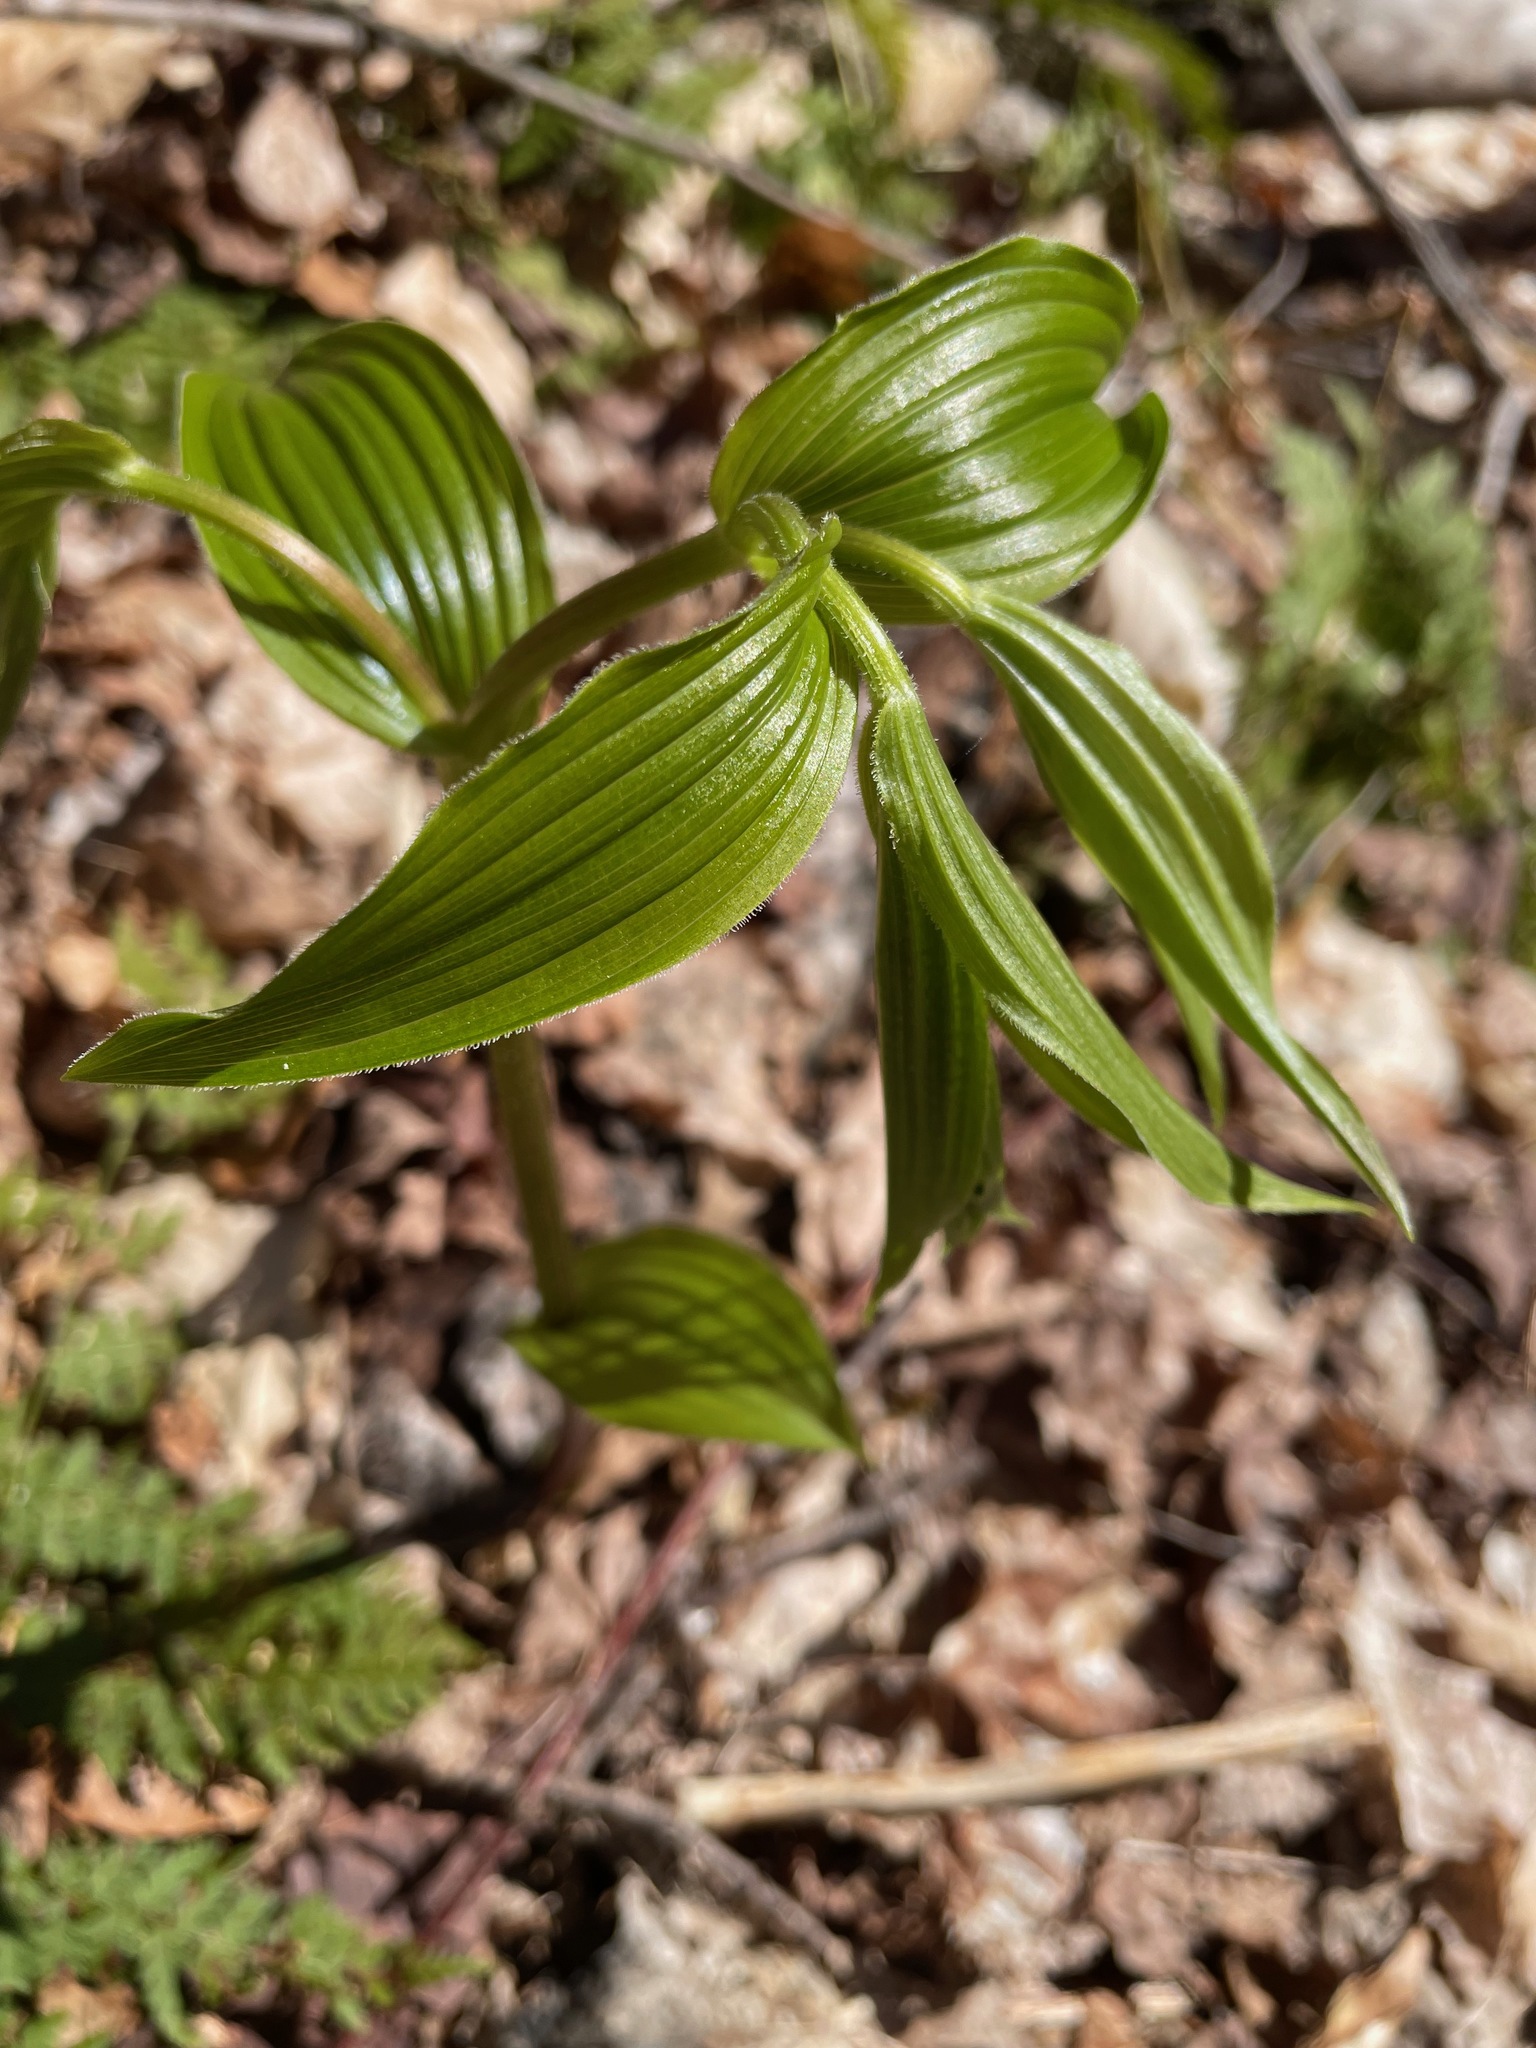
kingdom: Plantae
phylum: Tracheophyta
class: Liliopsida
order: Liliales
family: Liliaceae
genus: Streptopus
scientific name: Streptopus lanceolatus
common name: Rose mandarin
